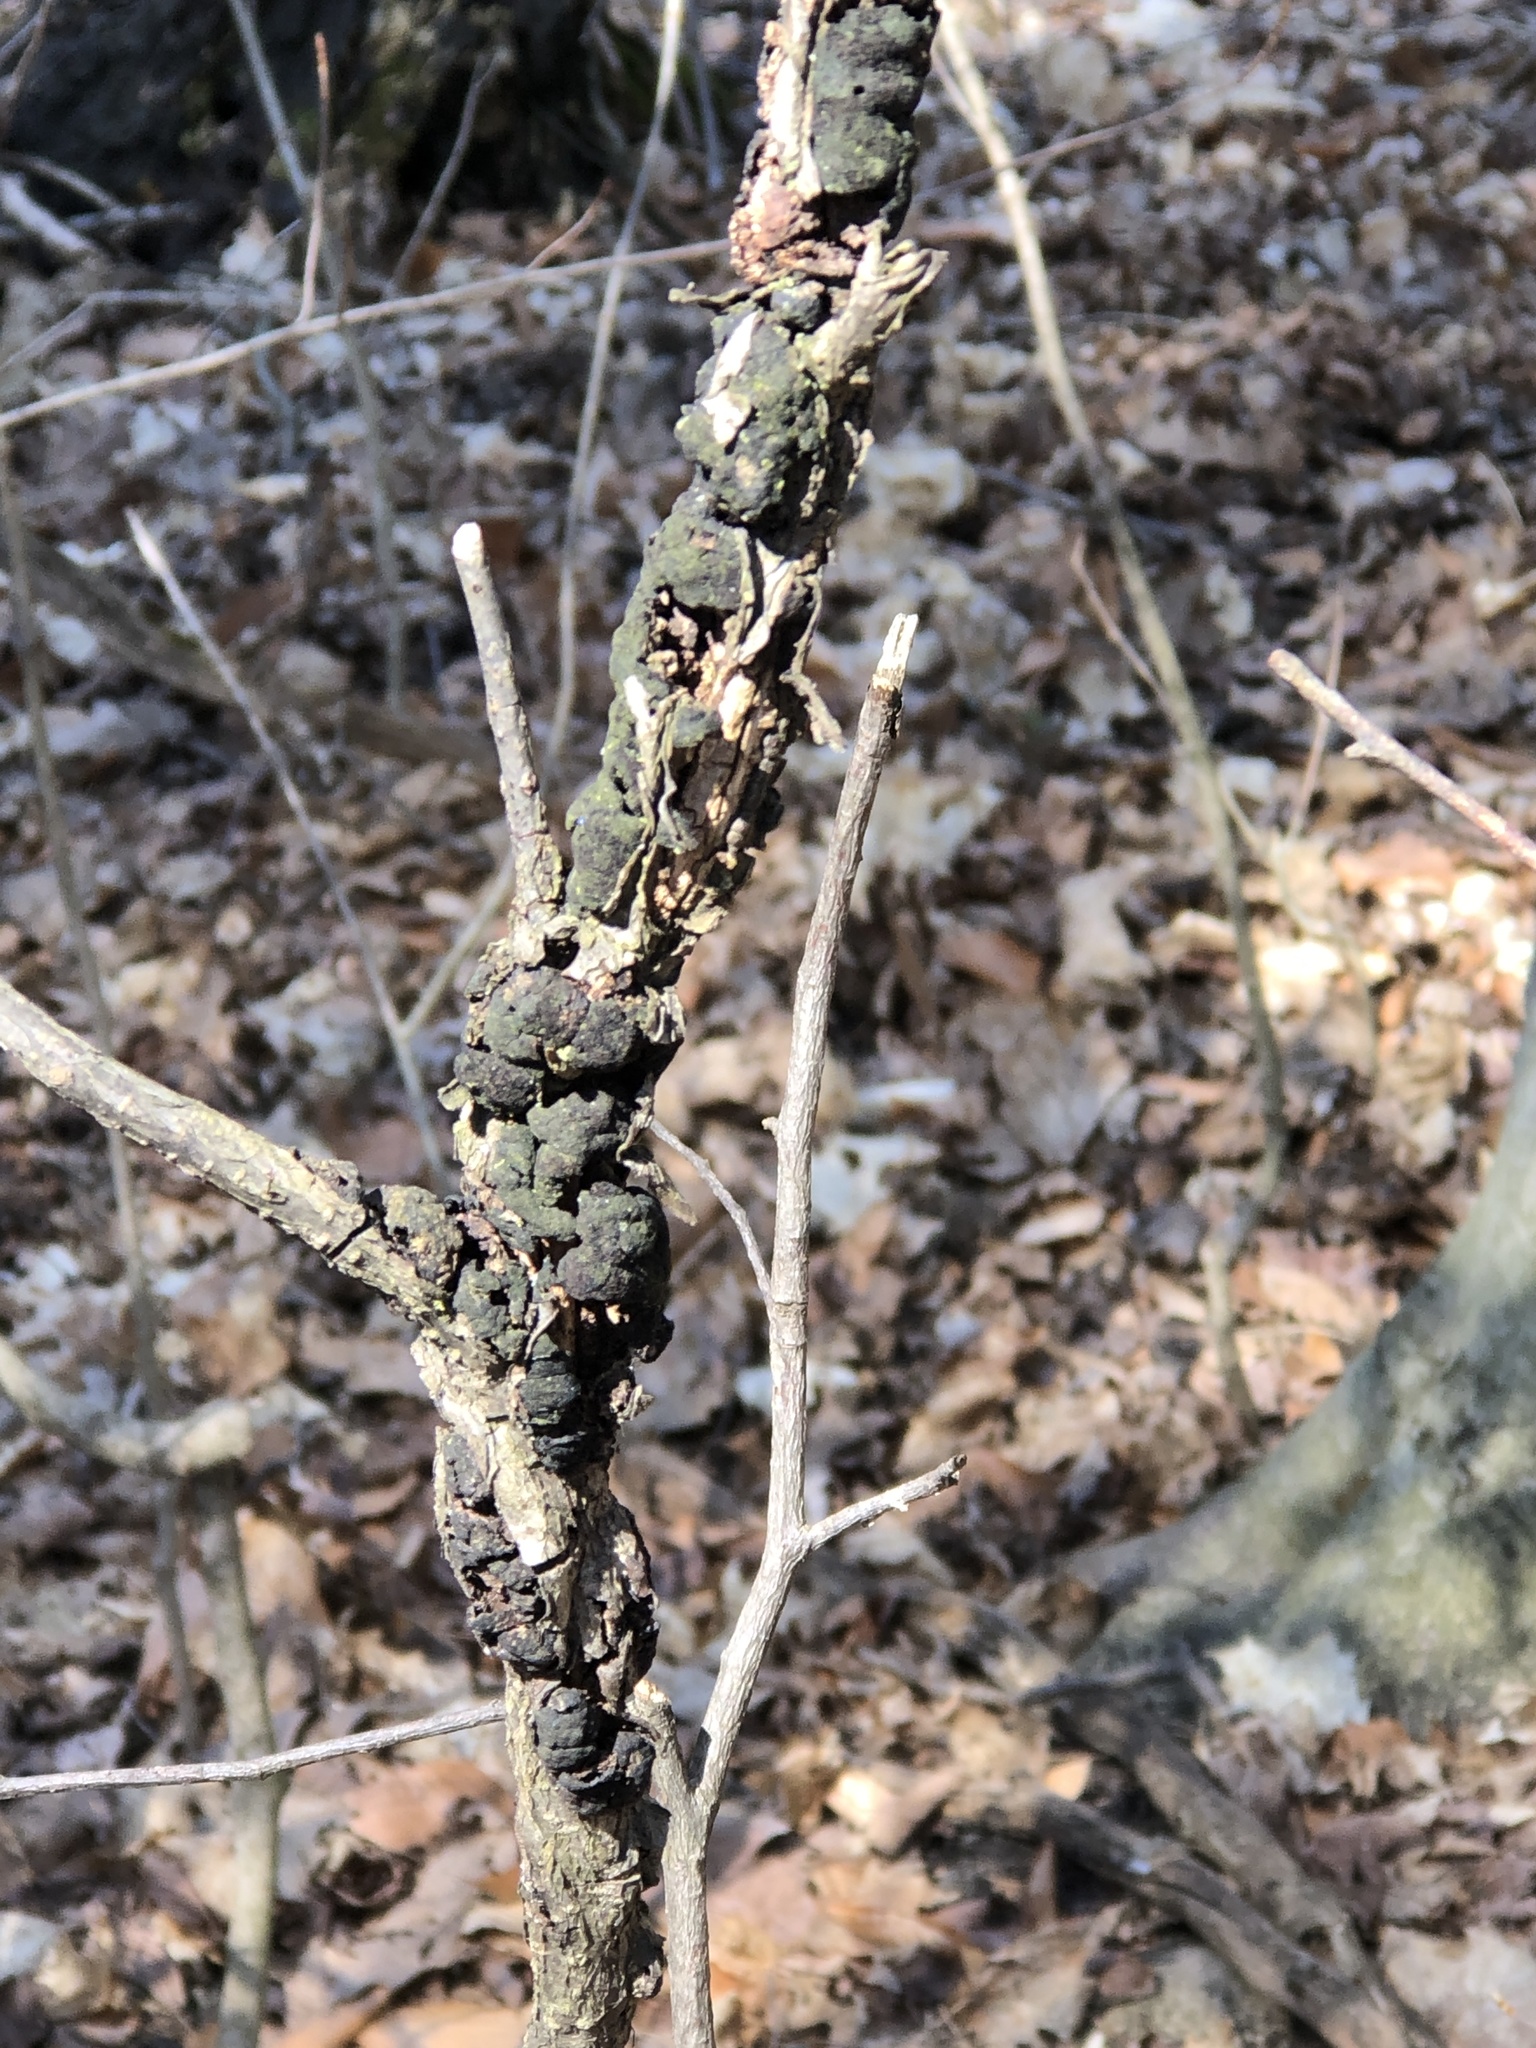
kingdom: Fungi
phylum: Ascomycota
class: Dothideomycetes
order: Venturiales
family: Venturiaceae
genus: Apiosporina
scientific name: Apiosporina morbosa
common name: Black knot
